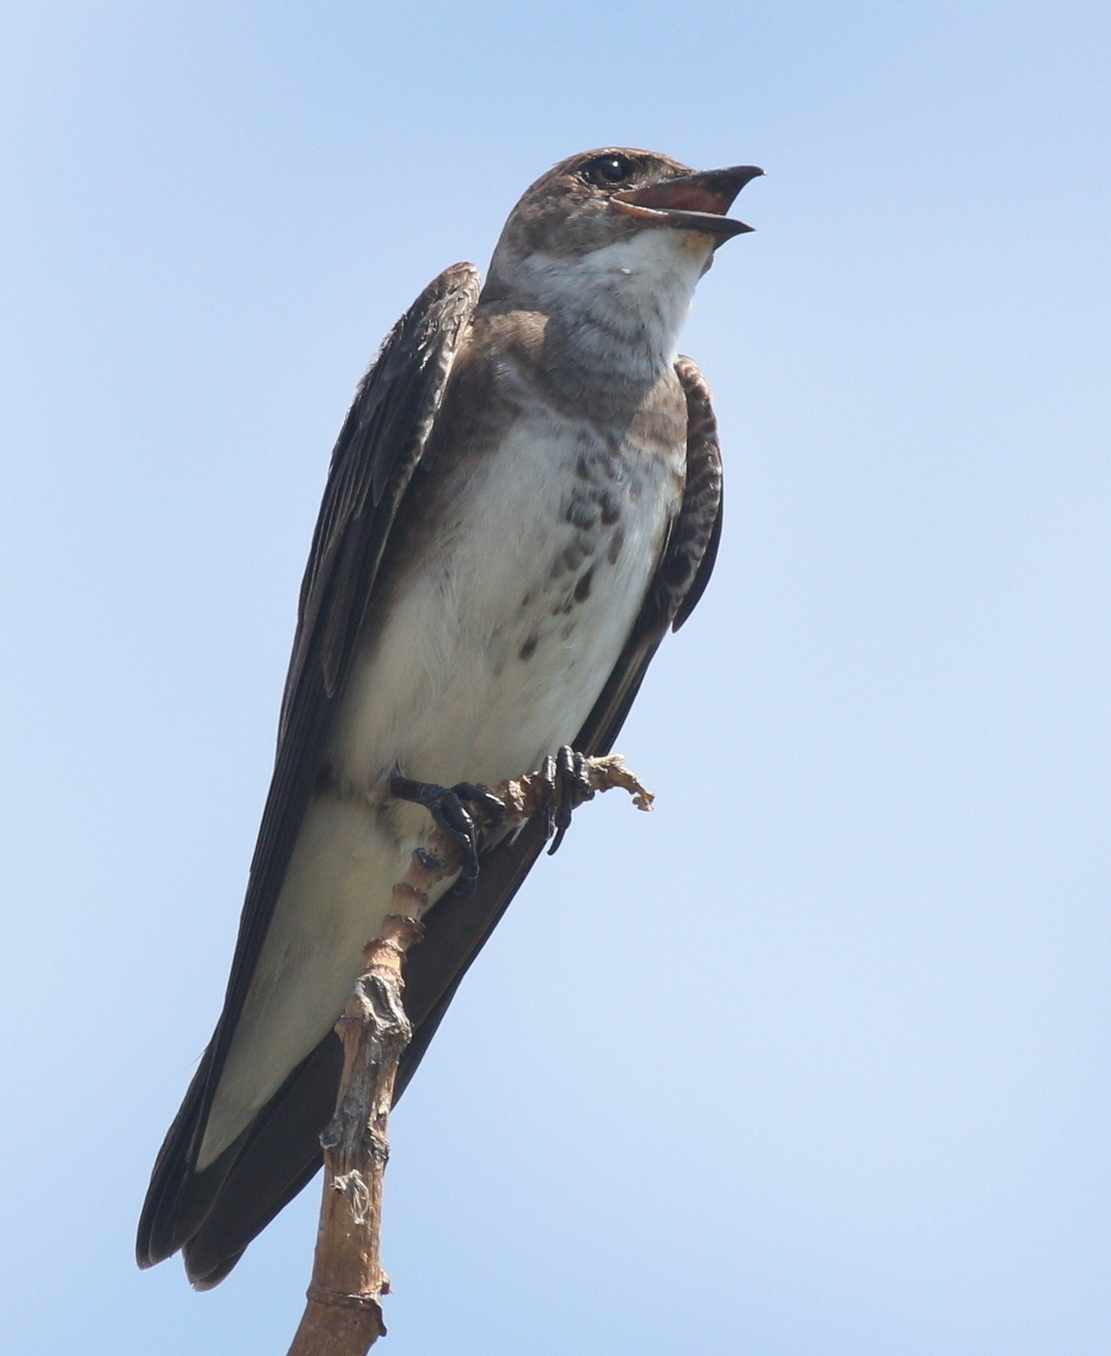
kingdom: Animalia
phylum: Chordata
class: Aves
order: Passeriformes
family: Hirundinidae
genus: Progne
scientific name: Progne tapera
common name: Brown-chested martin
